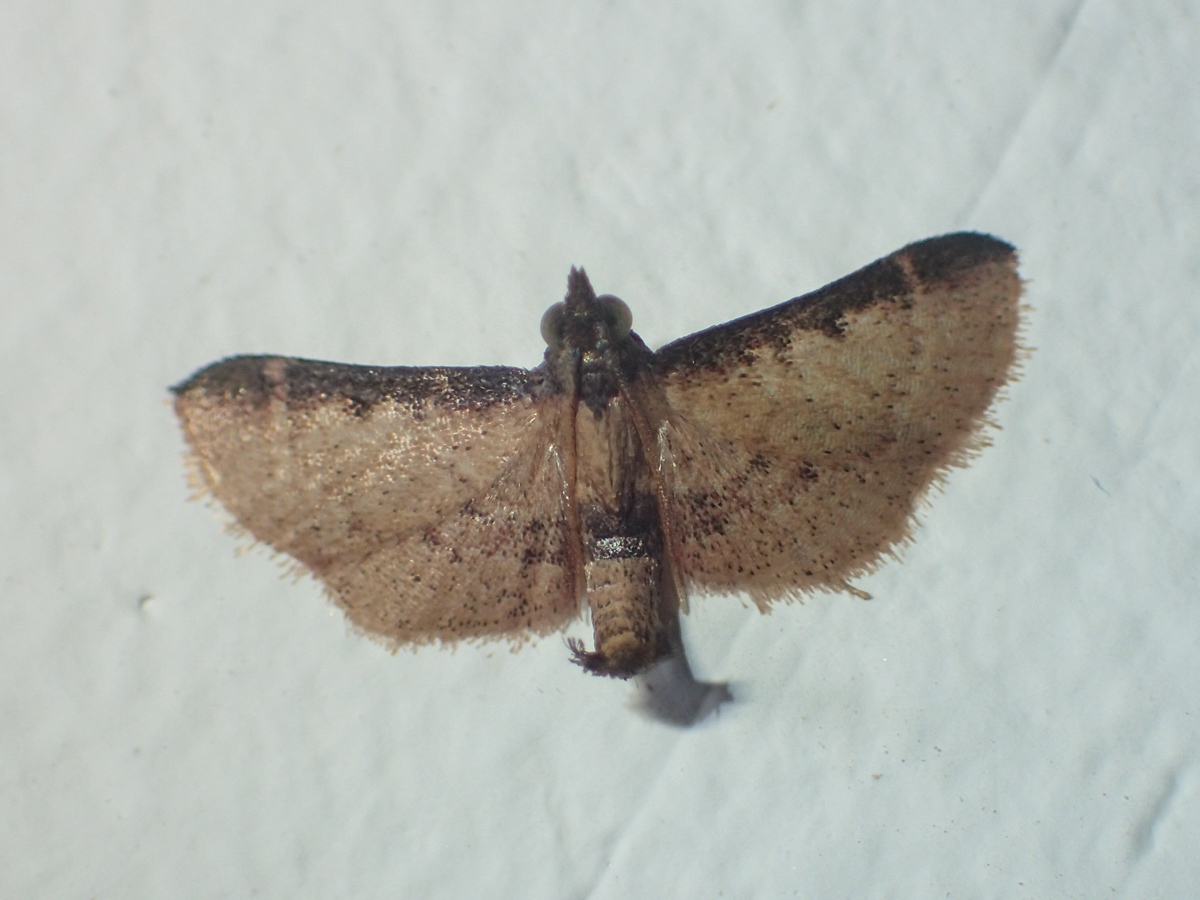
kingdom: Animalia
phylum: Arthropoda
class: Insecta
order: Lepidoptera
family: Pyralidae
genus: Hypsopygia
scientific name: Hypsopygia nigrivitta
